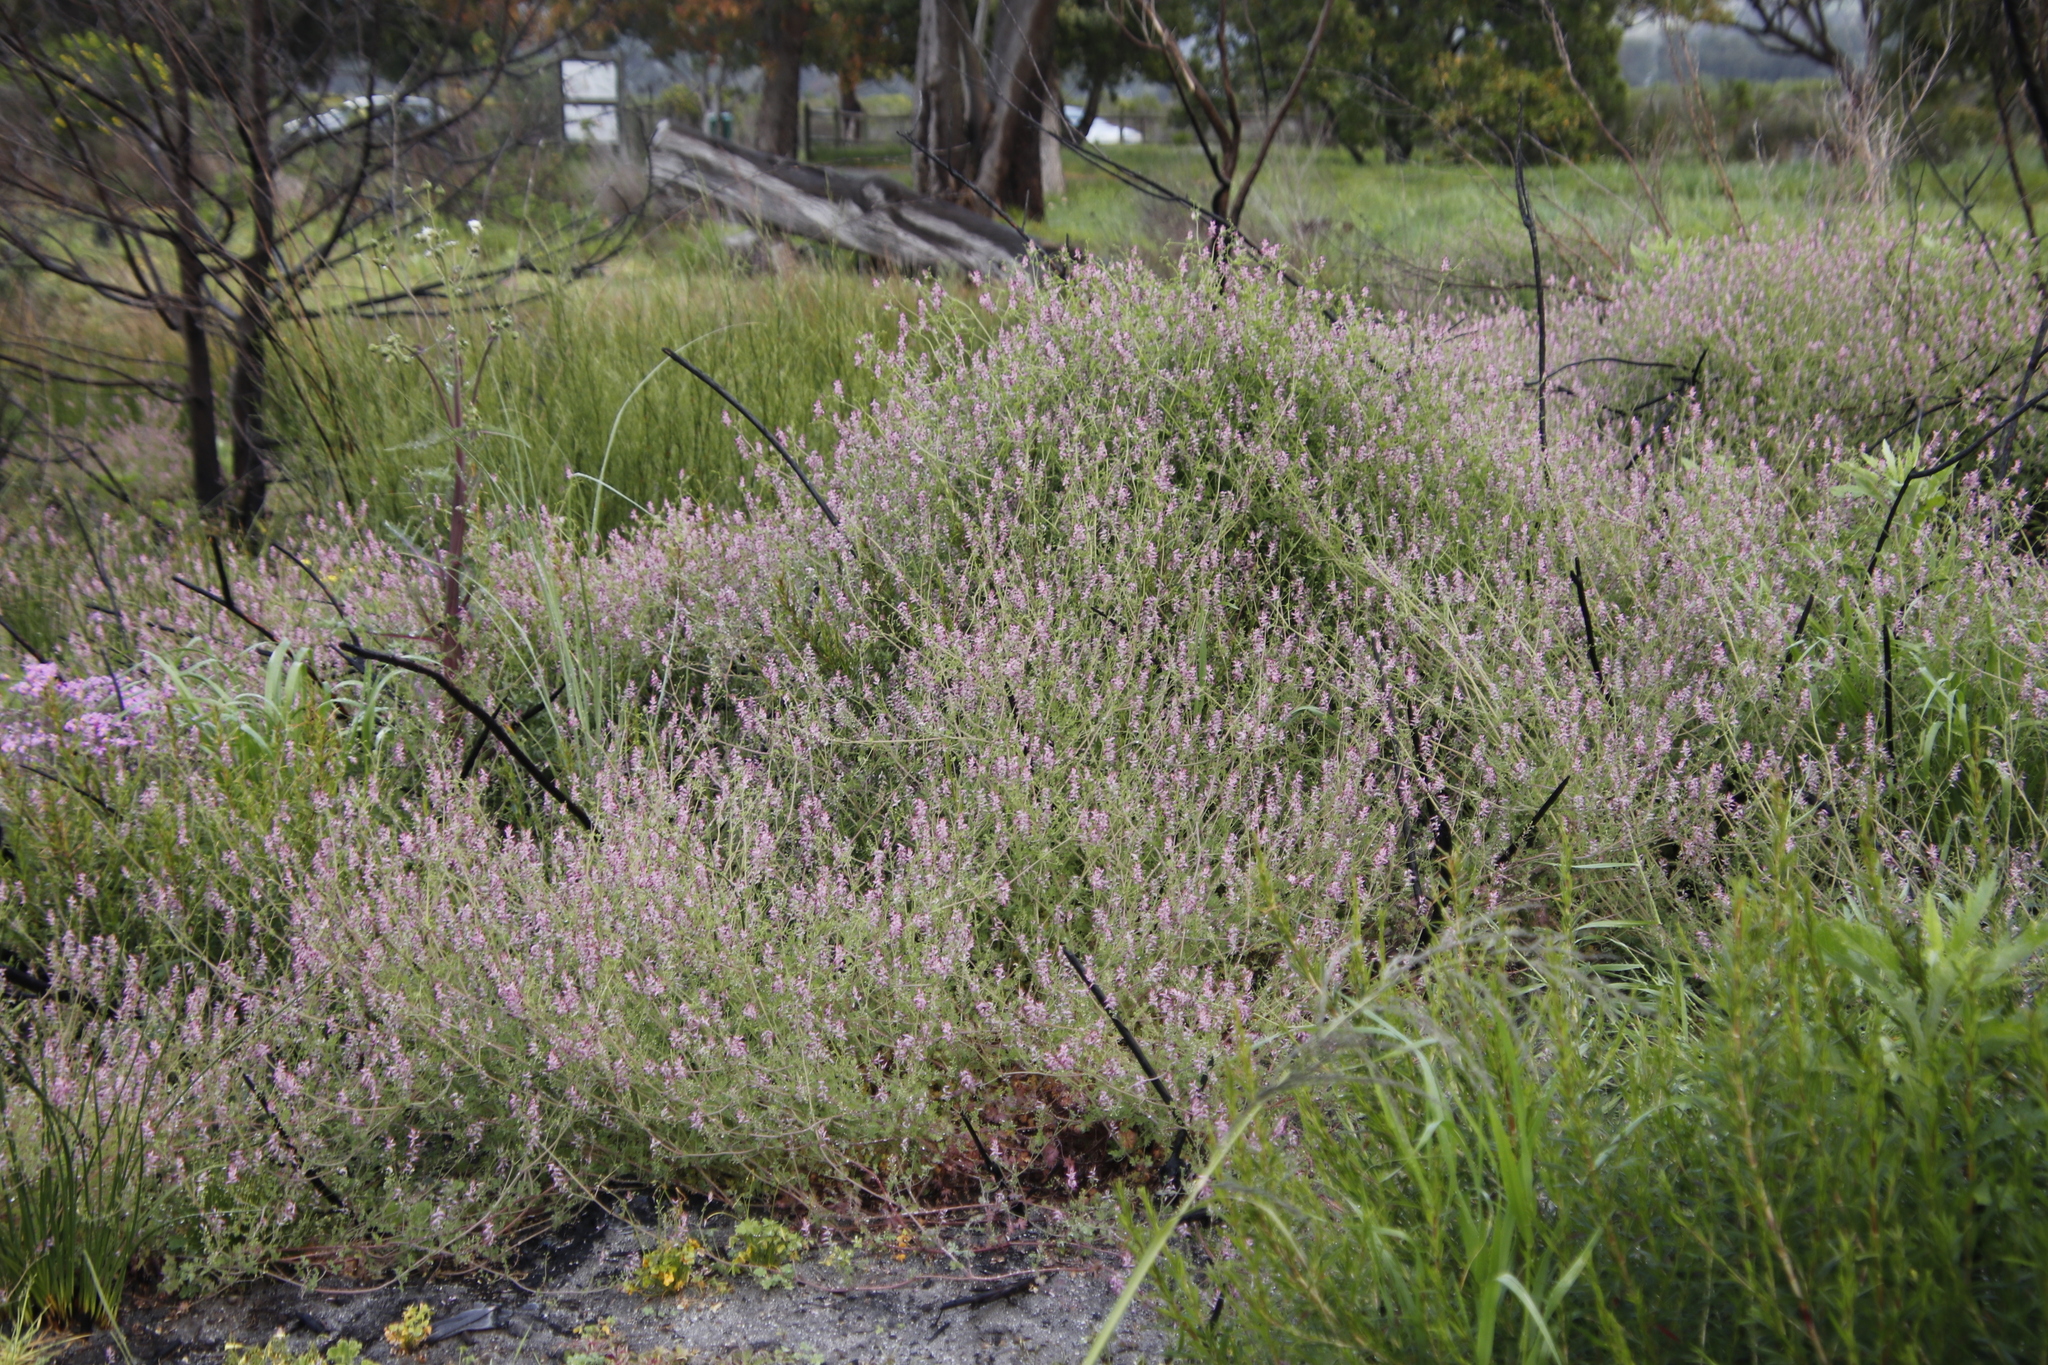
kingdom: Plantae
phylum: Tracheophyta
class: Magnoliopsida
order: Ranunculales
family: Papaveraceae
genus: Fumaria
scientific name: Fumaria muralis
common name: Common ramping-fumitory
